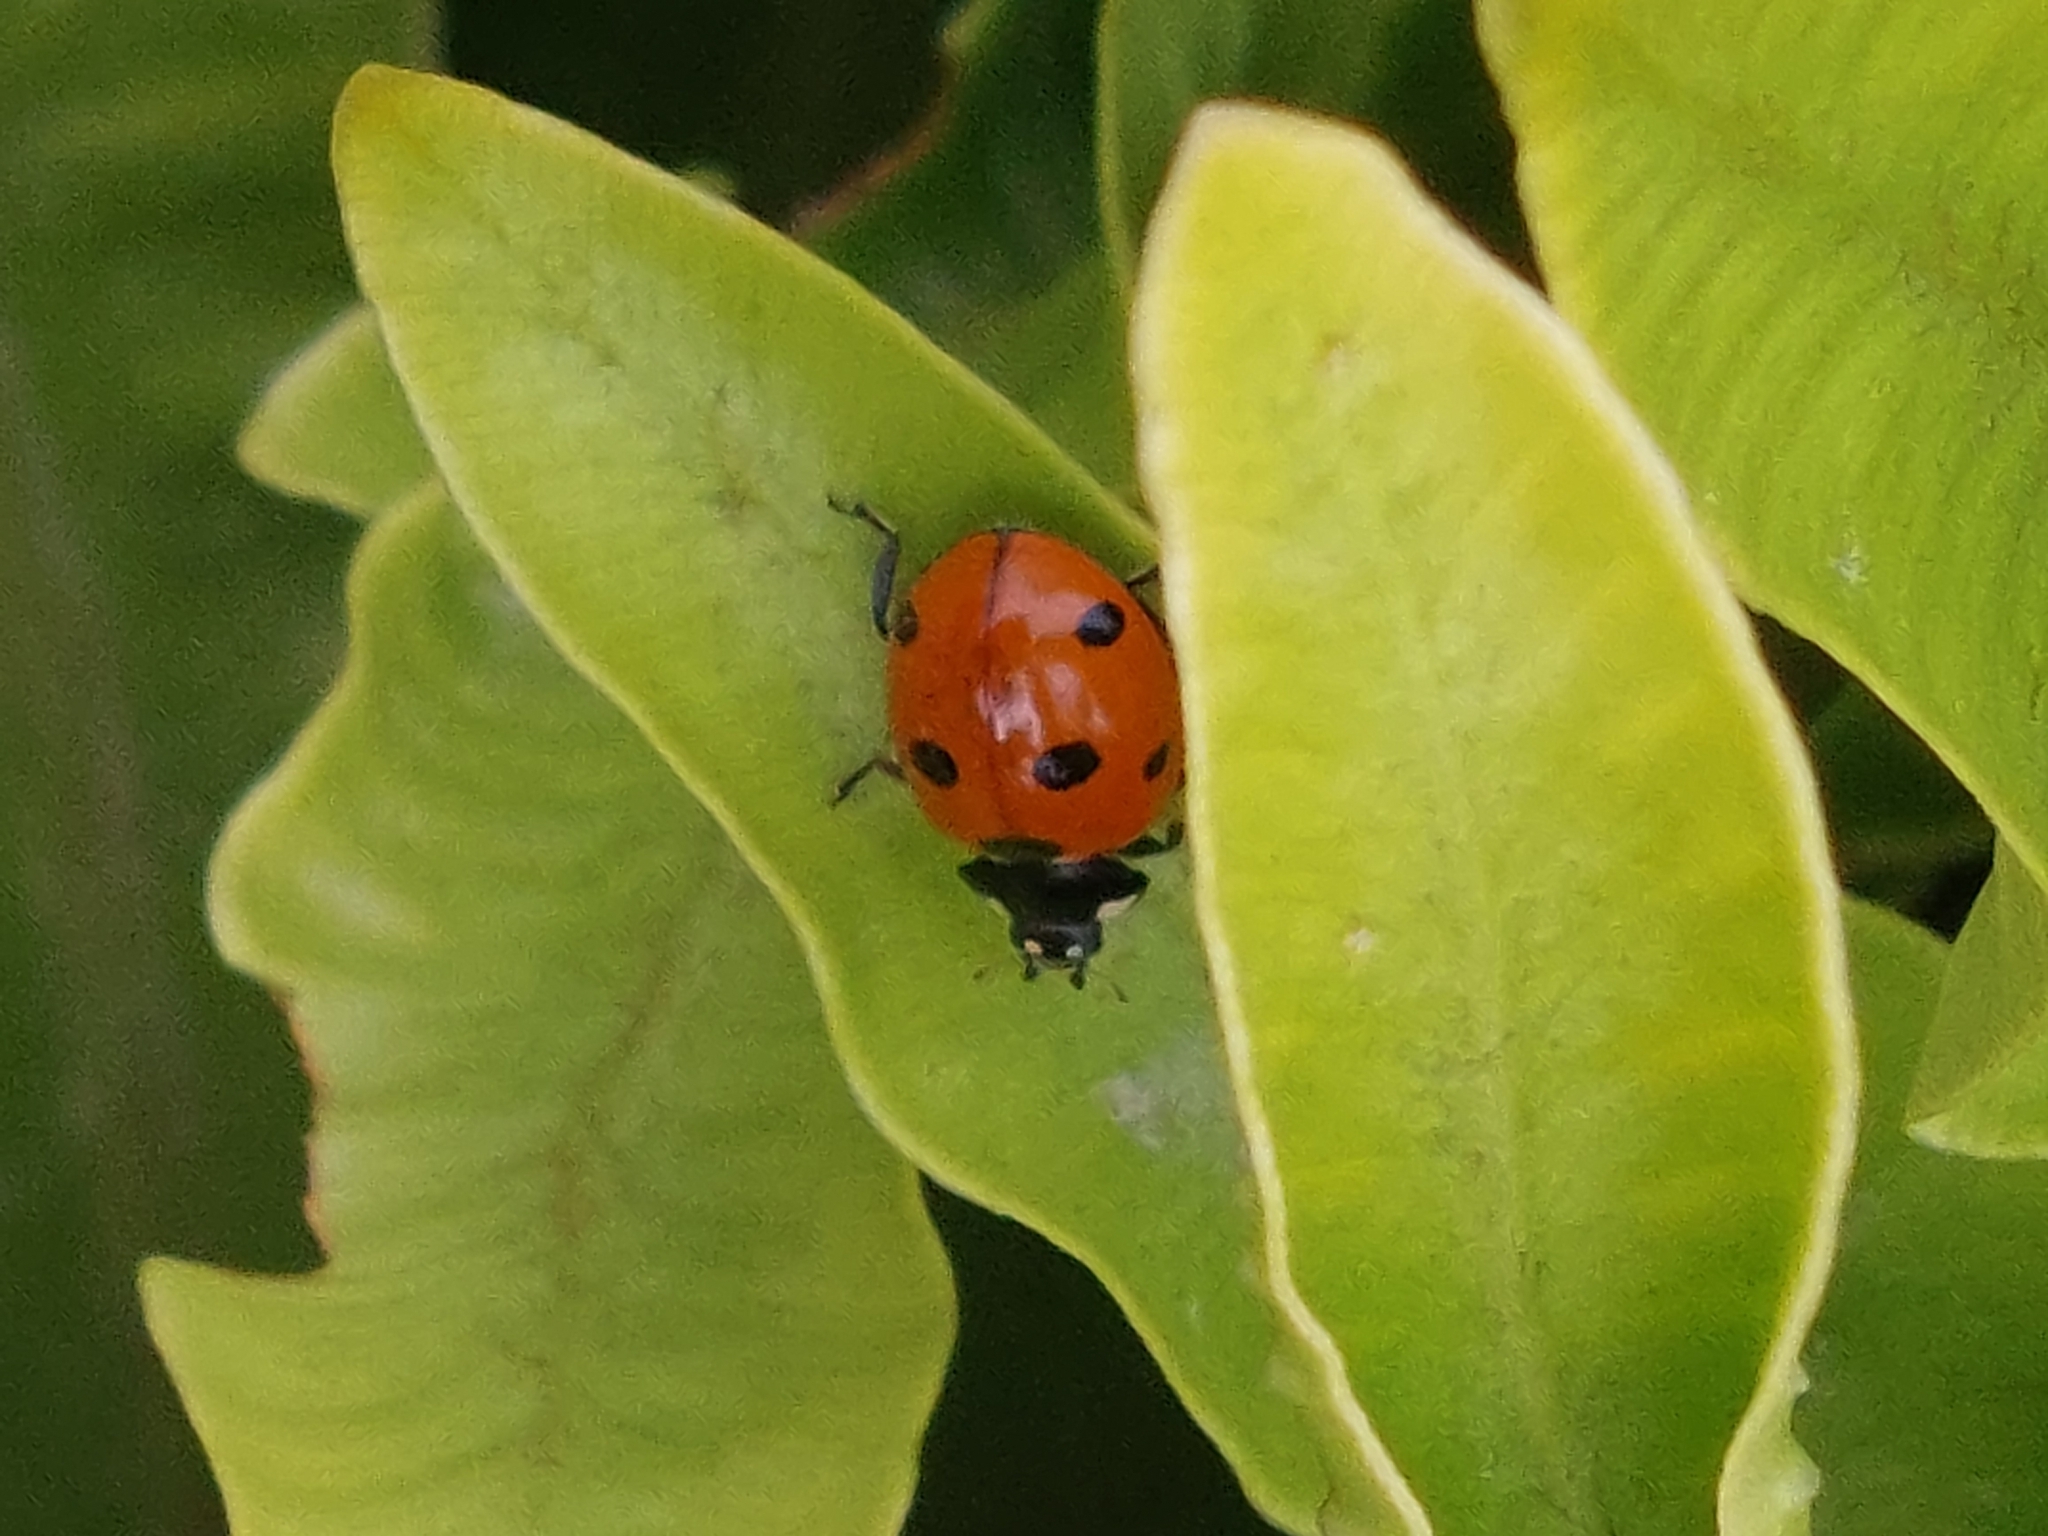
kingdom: Animalia
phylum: Arthropoda
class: Insecta
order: Coleoptera
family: Coccinellidae
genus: Coccinella
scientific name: Coccinella septempunctata
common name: Sevenspotted lady beetle
